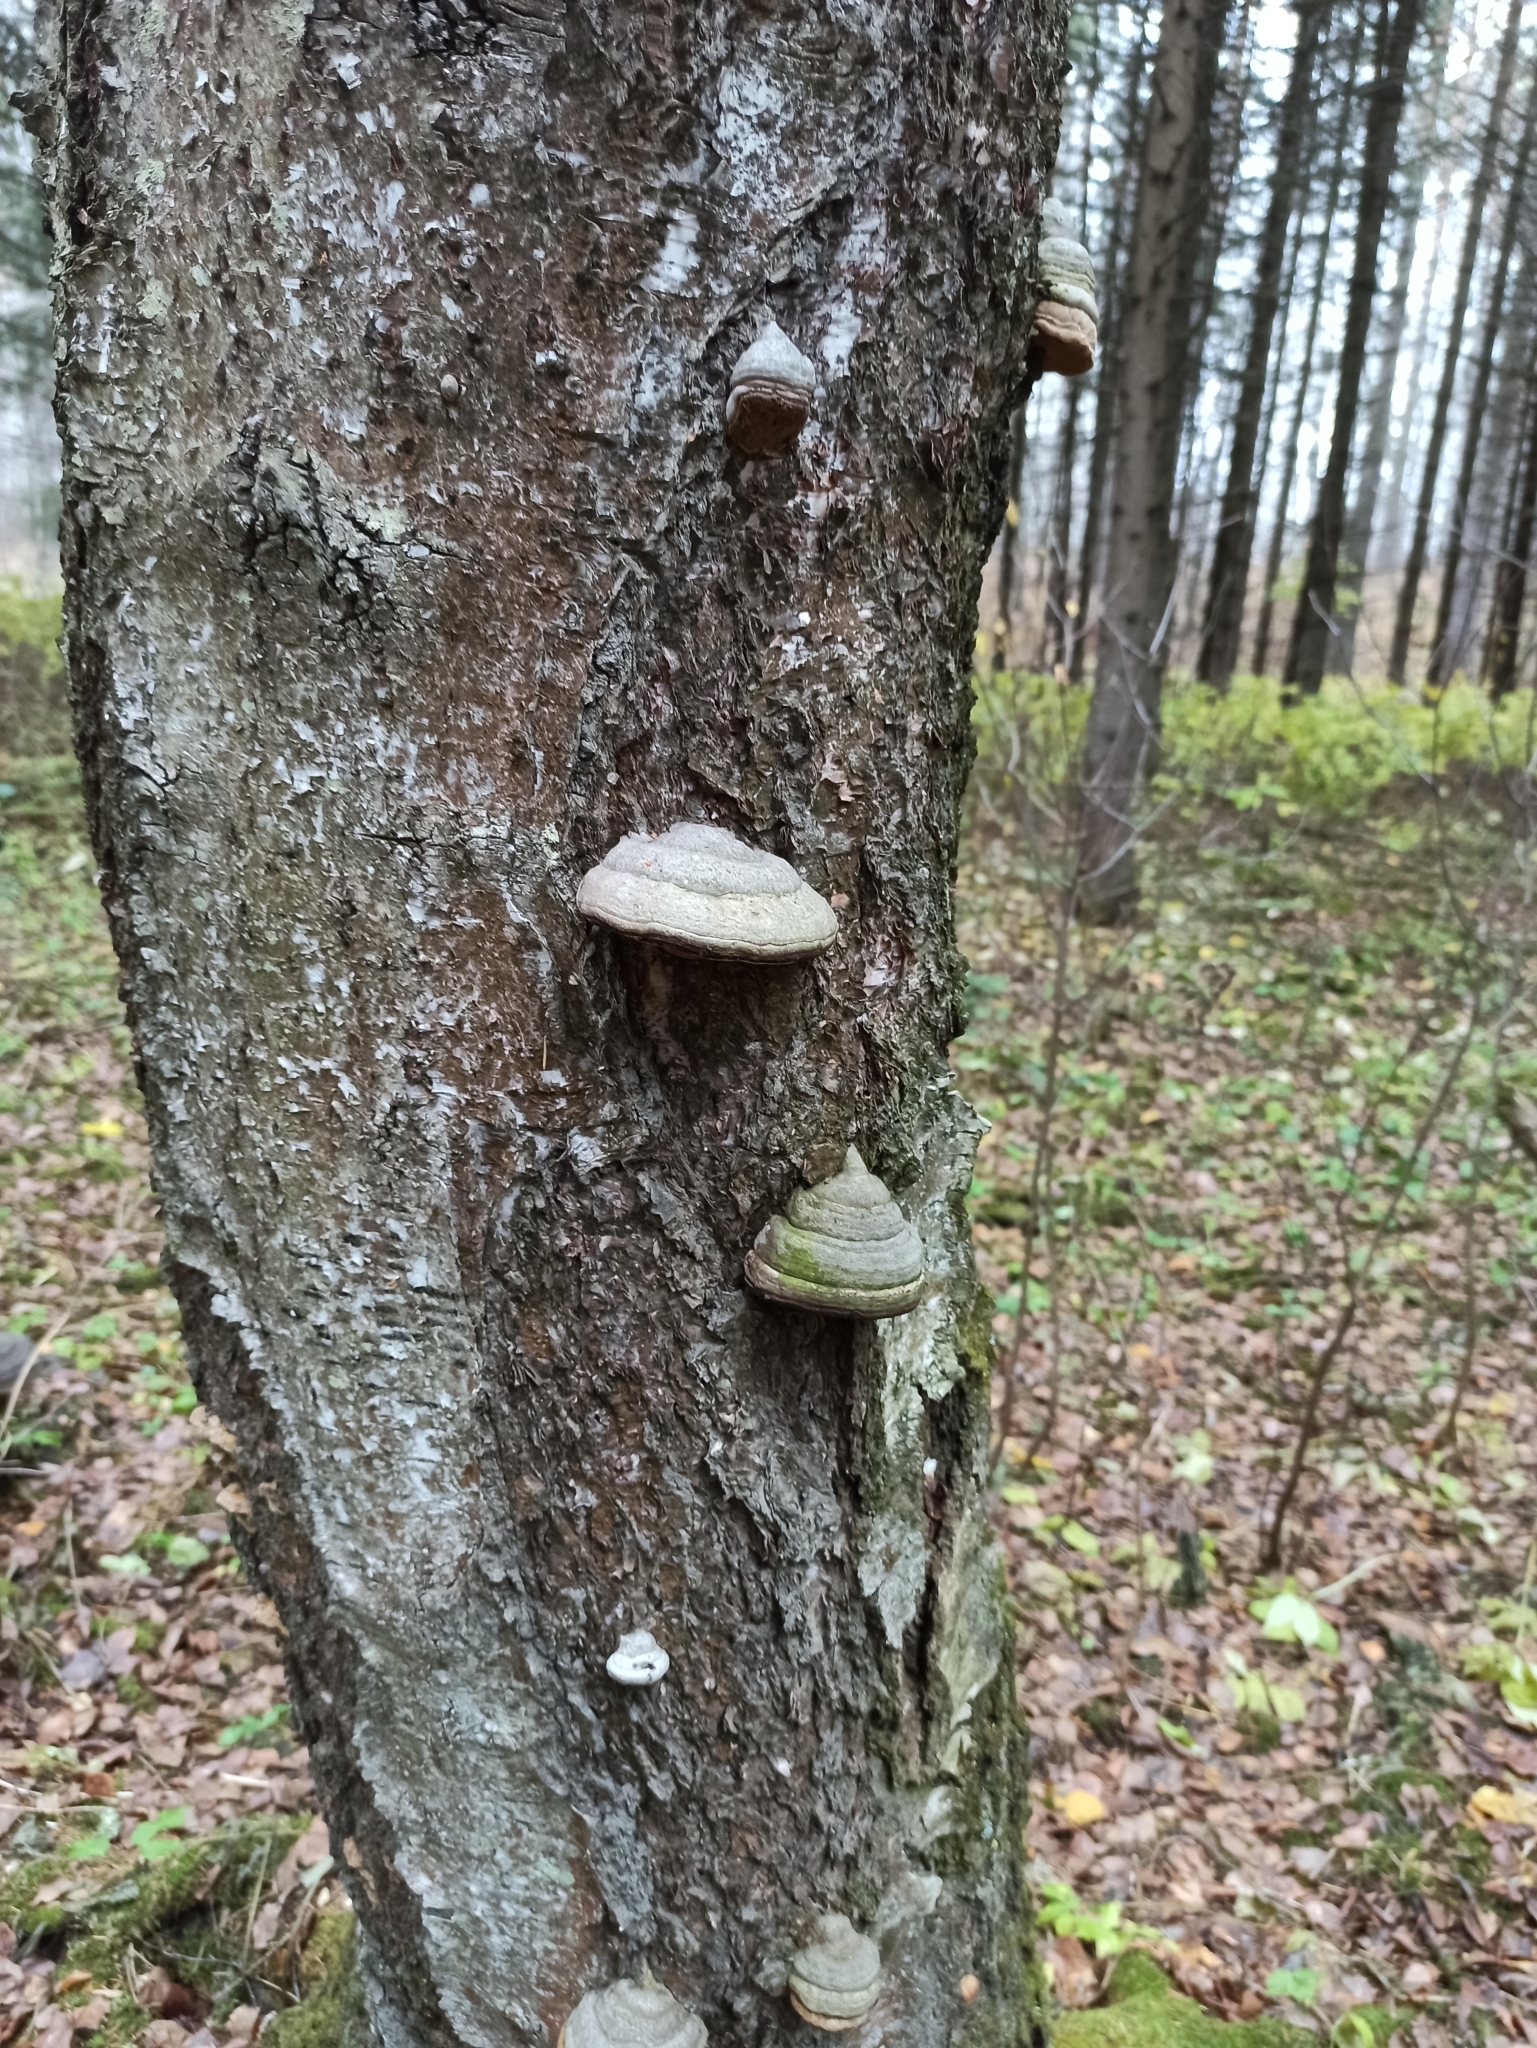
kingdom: Fungi
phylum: Basidiomycota
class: Agaricomycetes
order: Polyporales
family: Polyporaceae
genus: Fomes
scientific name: Fomes fomentarius
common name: Hoof fungus
